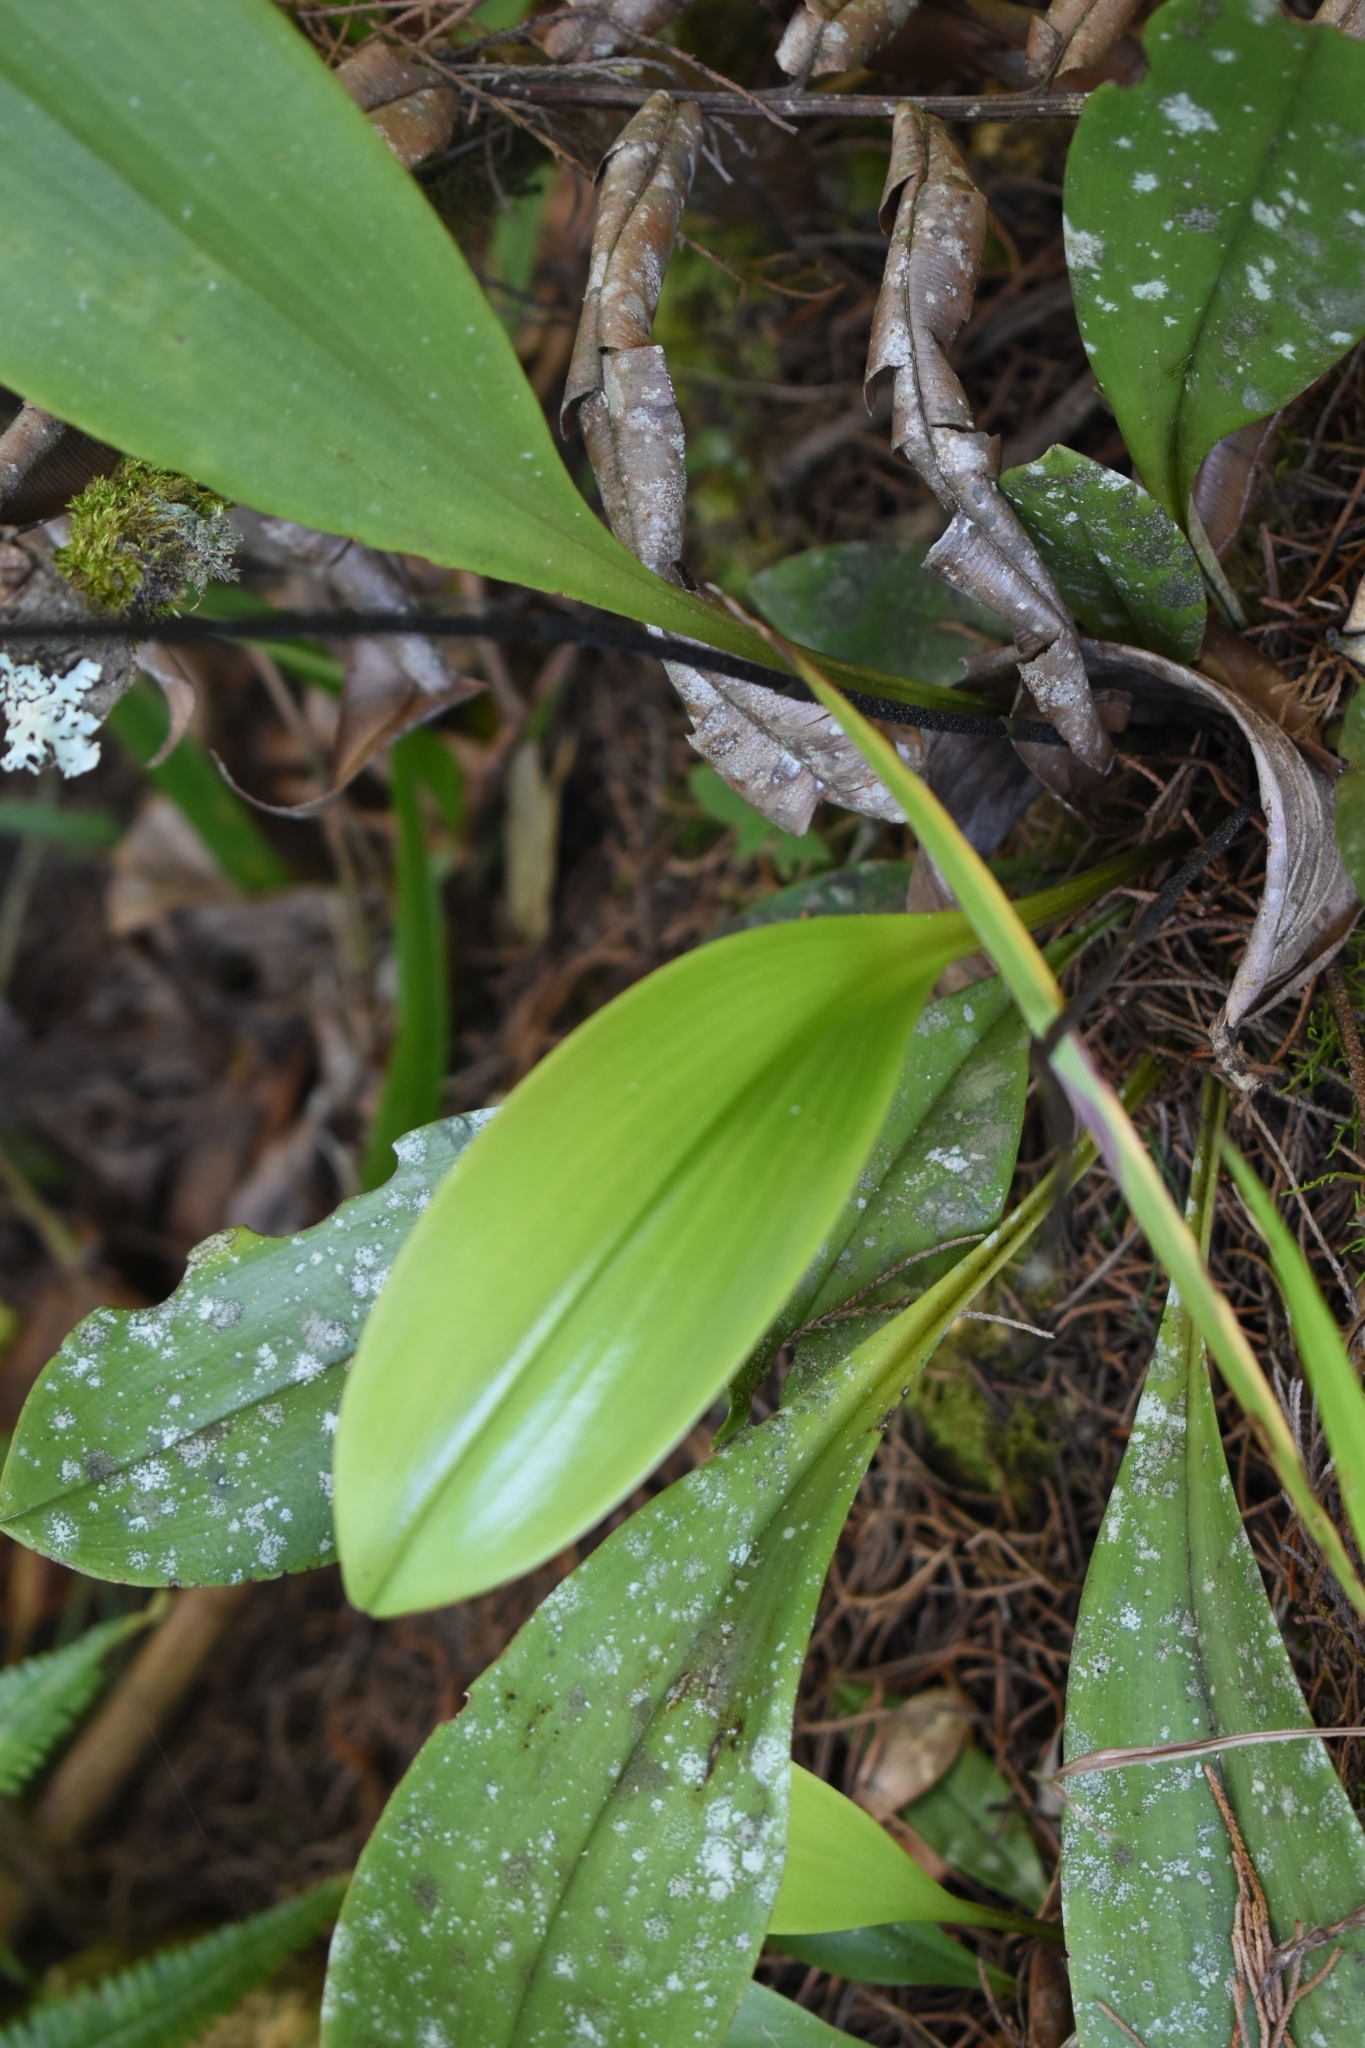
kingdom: Plantae
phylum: Tracheophyta
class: Liliopsida
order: Asparagales
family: Orchidaceae
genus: Scaphosepalum
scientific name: Scaphosepalum antenniferum
